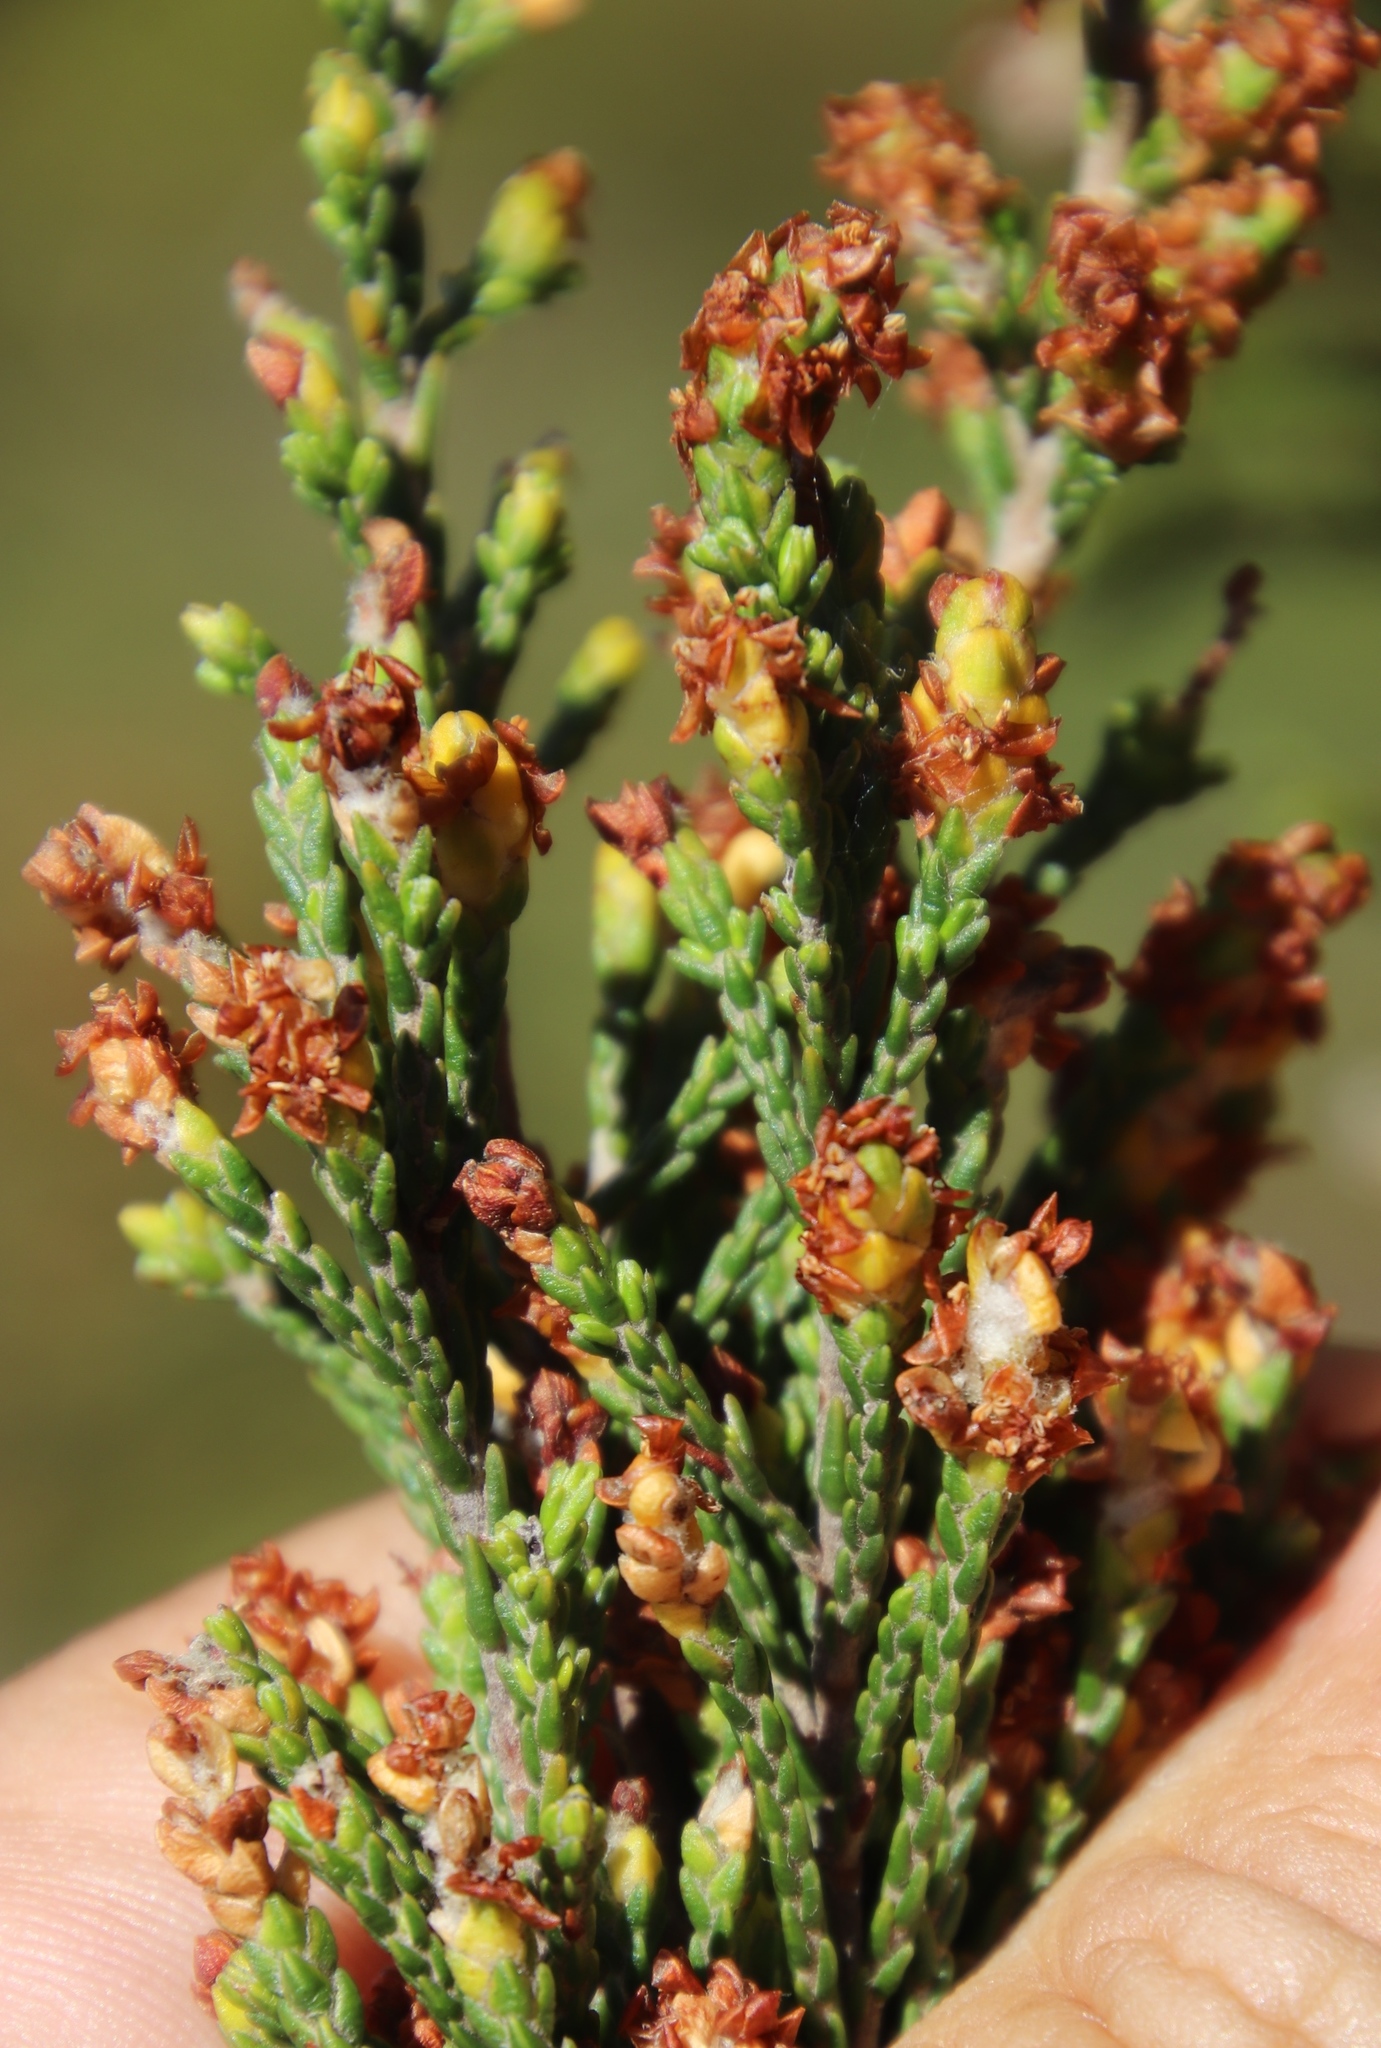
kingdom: Plantae
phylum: Tracheophyta
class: Magnoliopsida
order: Malvales
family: Thymelaeaceae
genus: Passerina
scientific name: Passerina corymbosa
